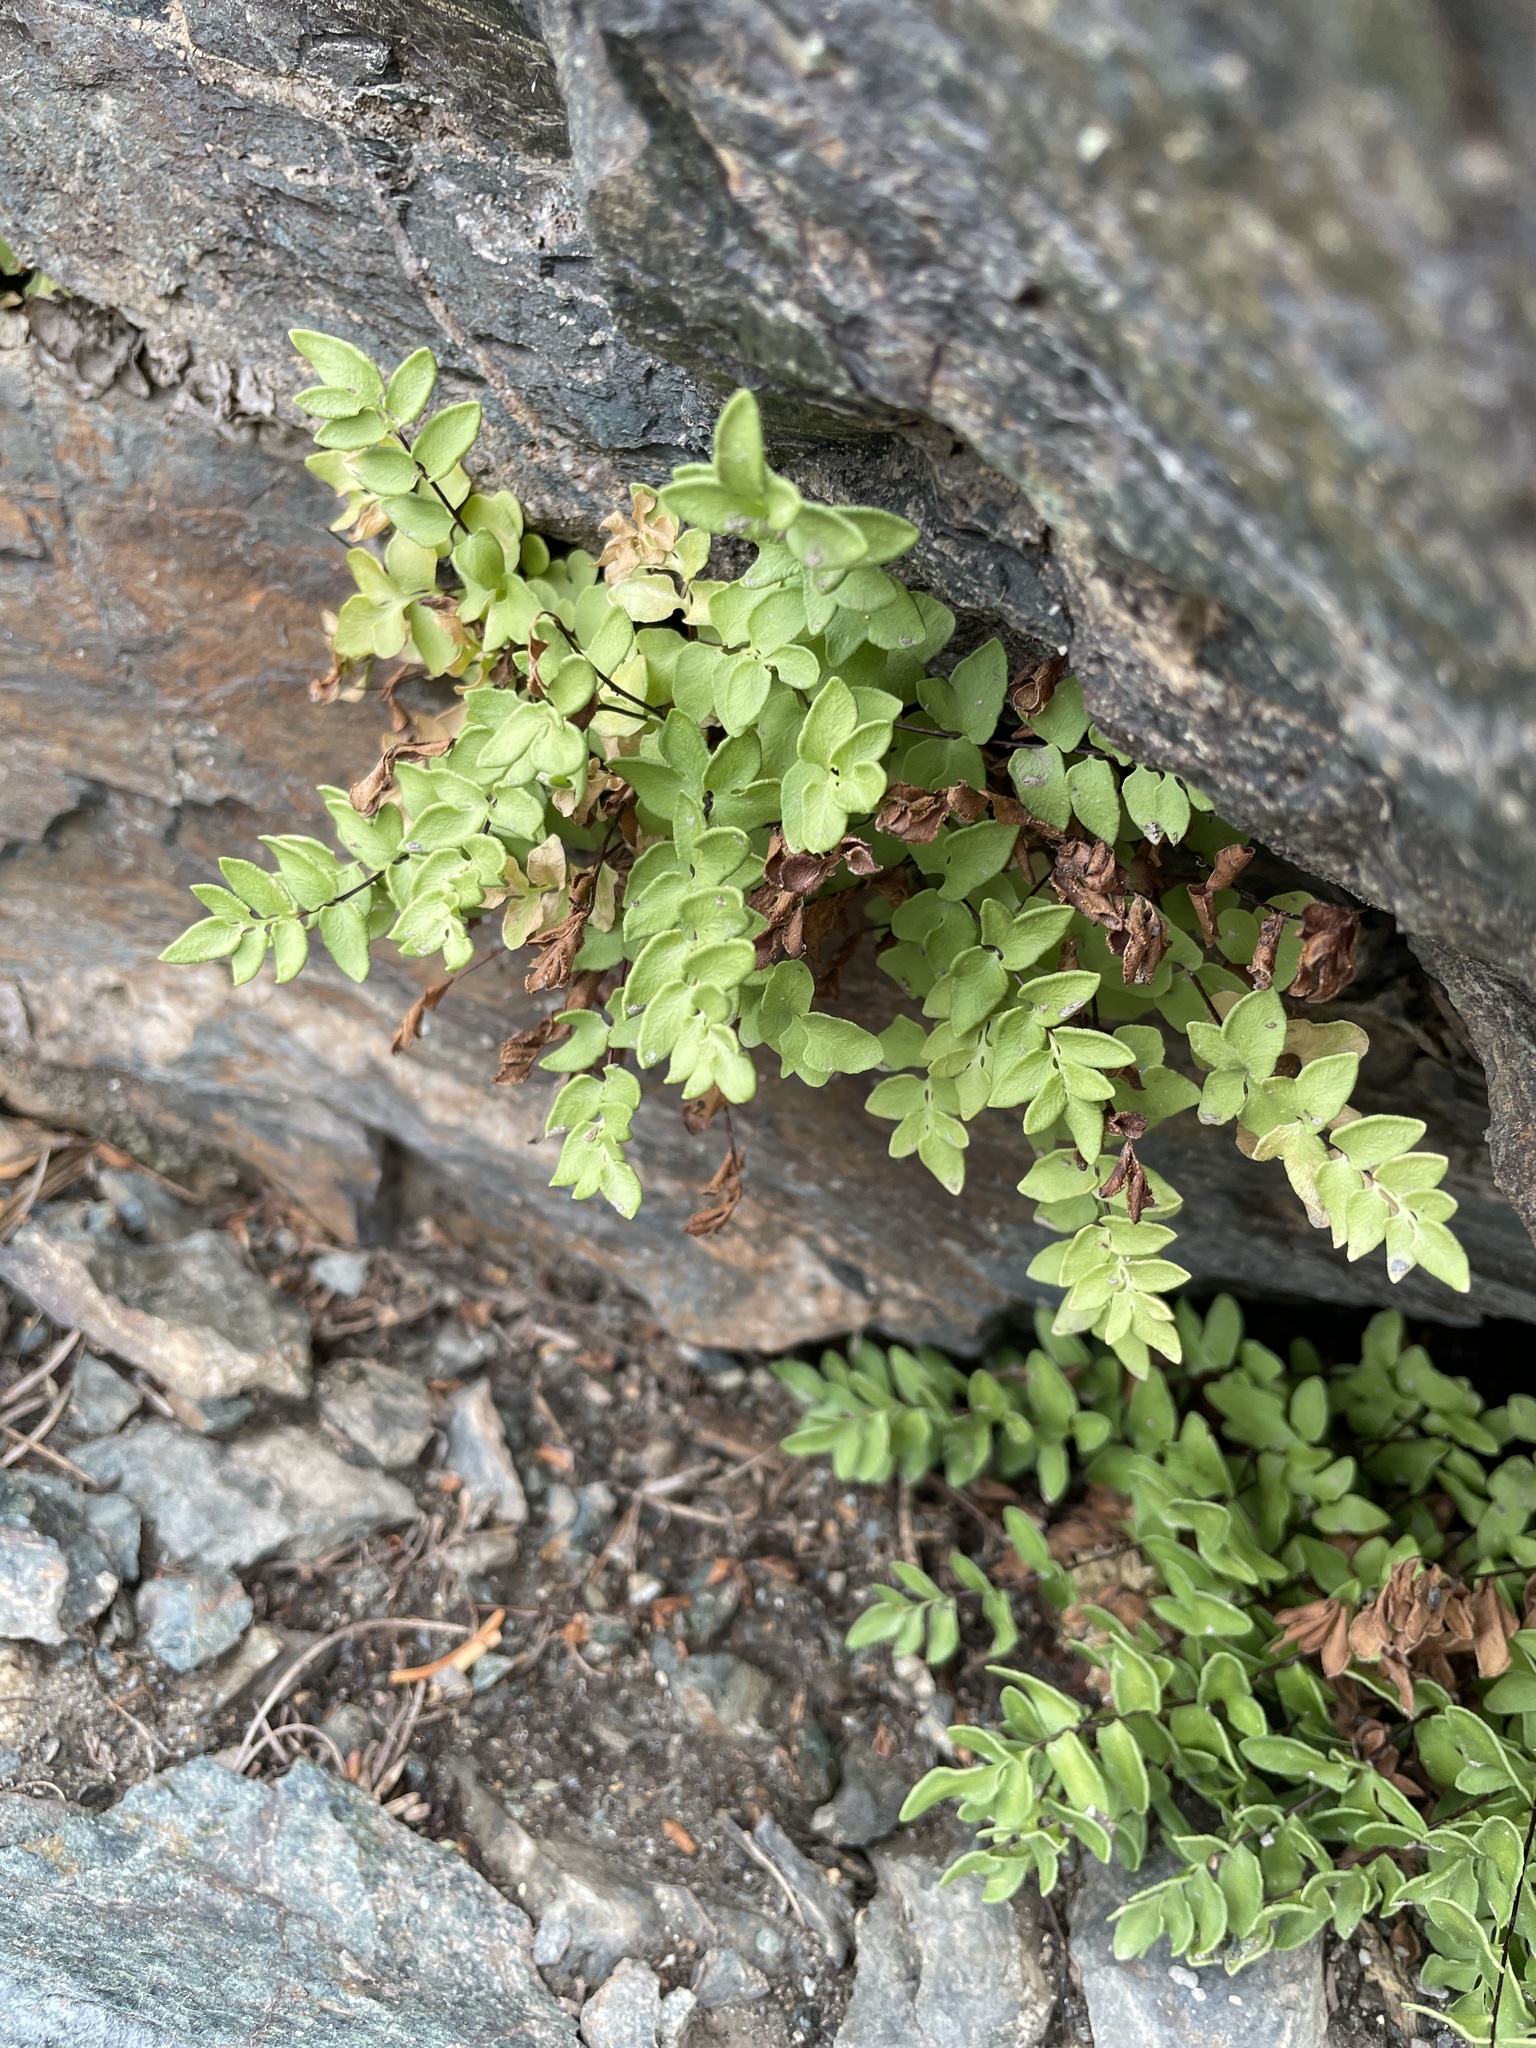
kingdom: Plantae
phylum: Tracheophyta
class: Polypodiopsida
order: Polypodiales
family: Pteridaceae
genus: Pellaea
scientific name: Pellaea breweri
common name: Brewer's cliffbrake
